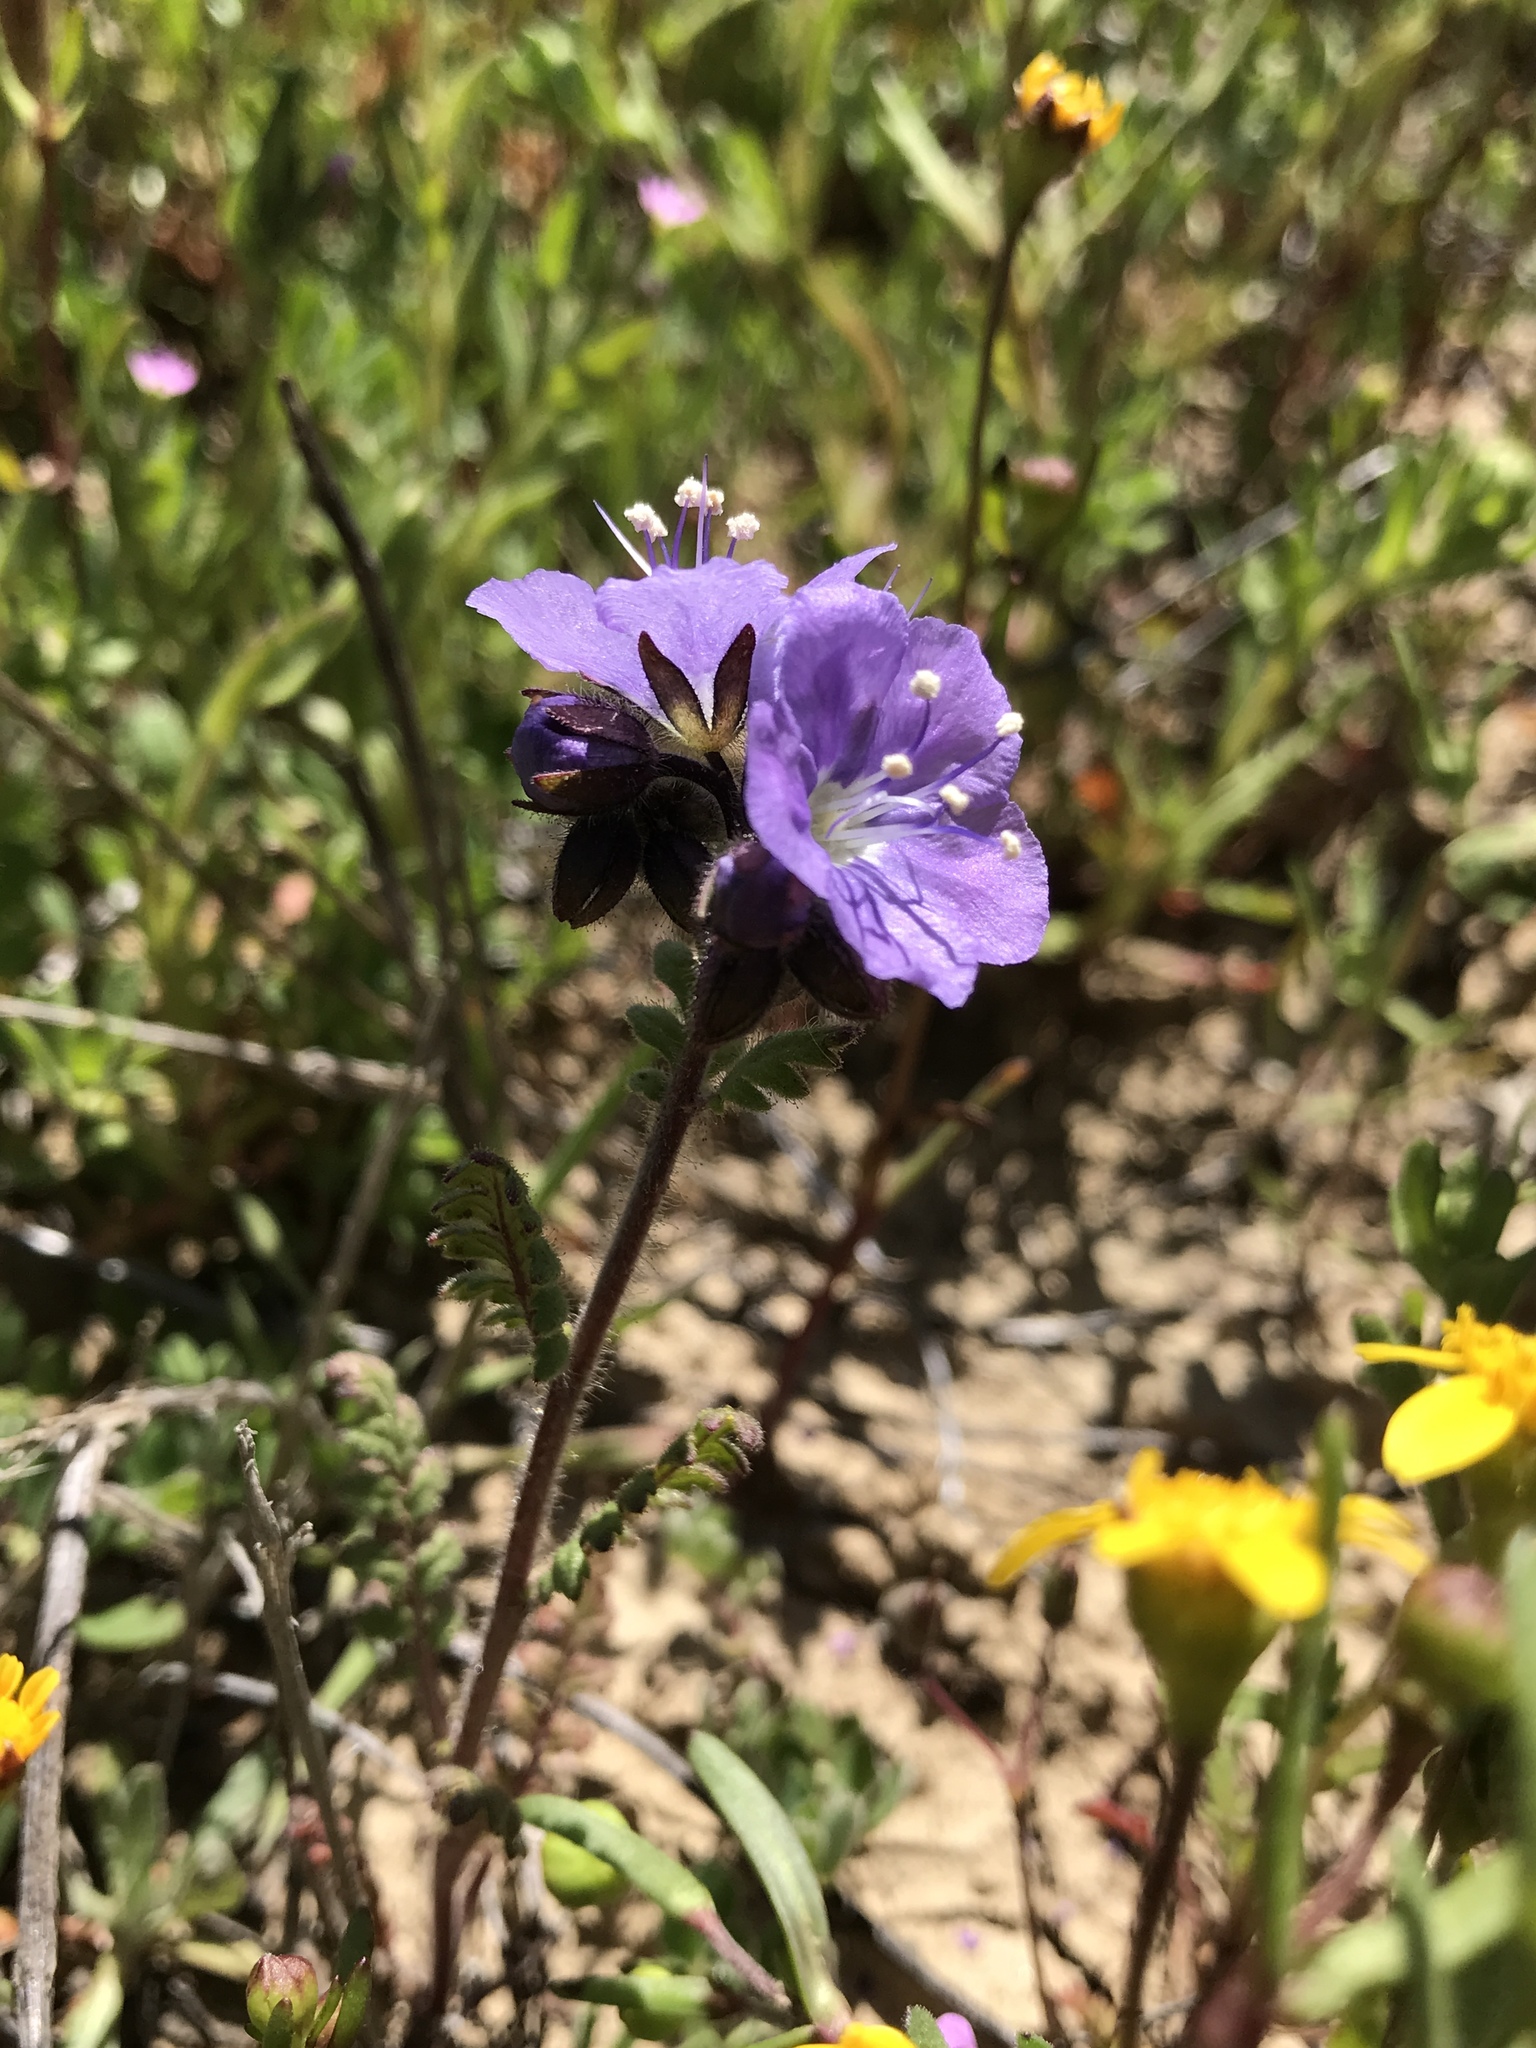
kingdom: Plantae
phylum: Tracheophyta
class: Magnoliopsida
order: Boraginales
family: Hydrophyllaceae
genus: Phacelia
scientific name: Phacelia ciliata
